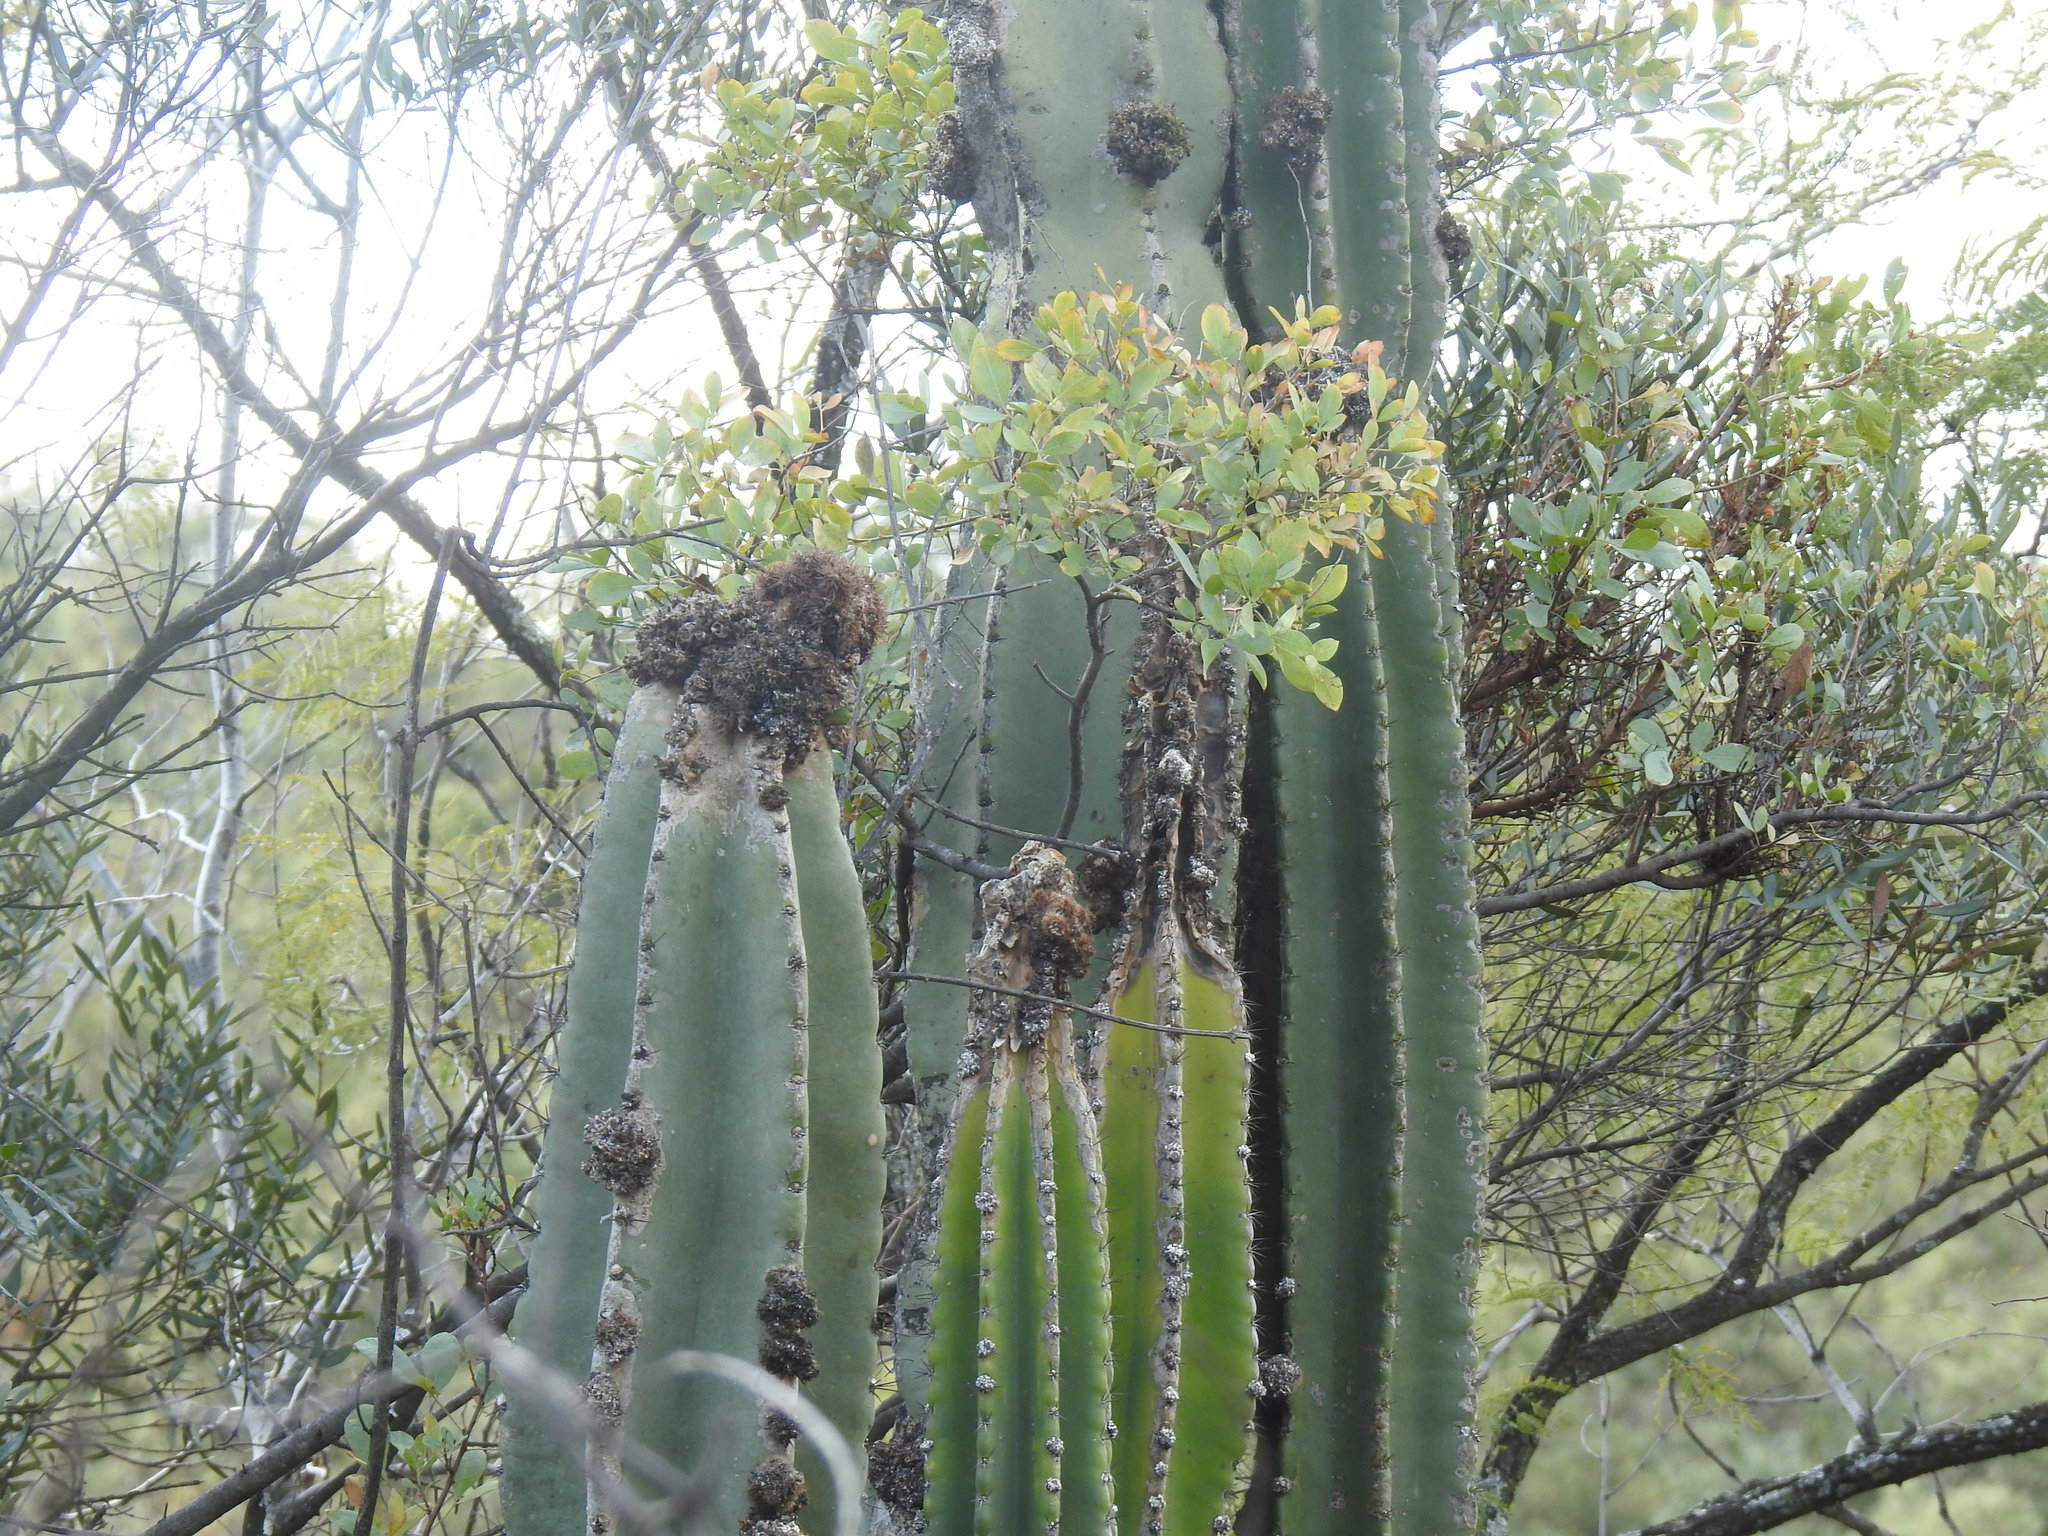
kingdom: Plantae
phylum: Tracheophyta
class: Magnoliopsida
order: Caryophyllales
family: Cactaceae
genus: Cereus
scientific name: Cereus jamacaru
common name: Queen-of-the-night
